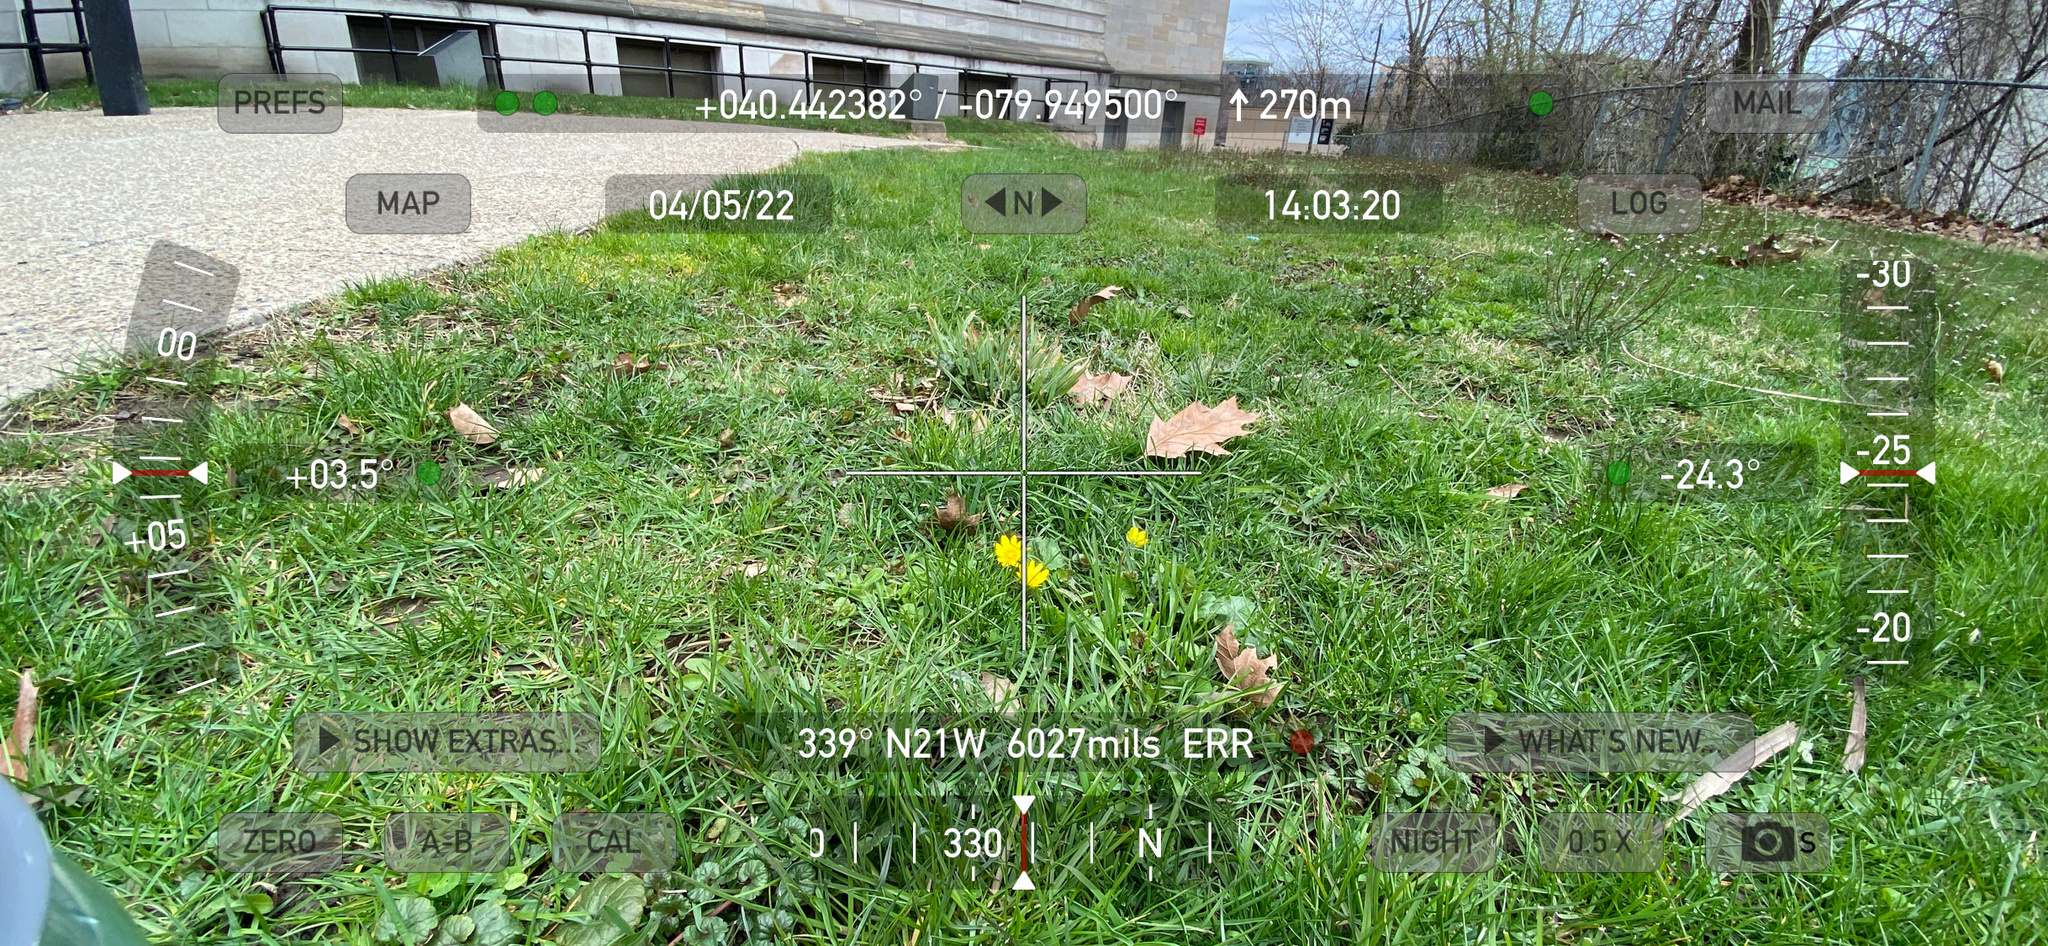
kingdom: Plantae
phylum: Tracheophyta
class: Magnoliopsida
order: Ranunculales
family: Ranunculaceae
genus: Ficaria
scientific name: Ficaria verna
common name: Lesser celandine
